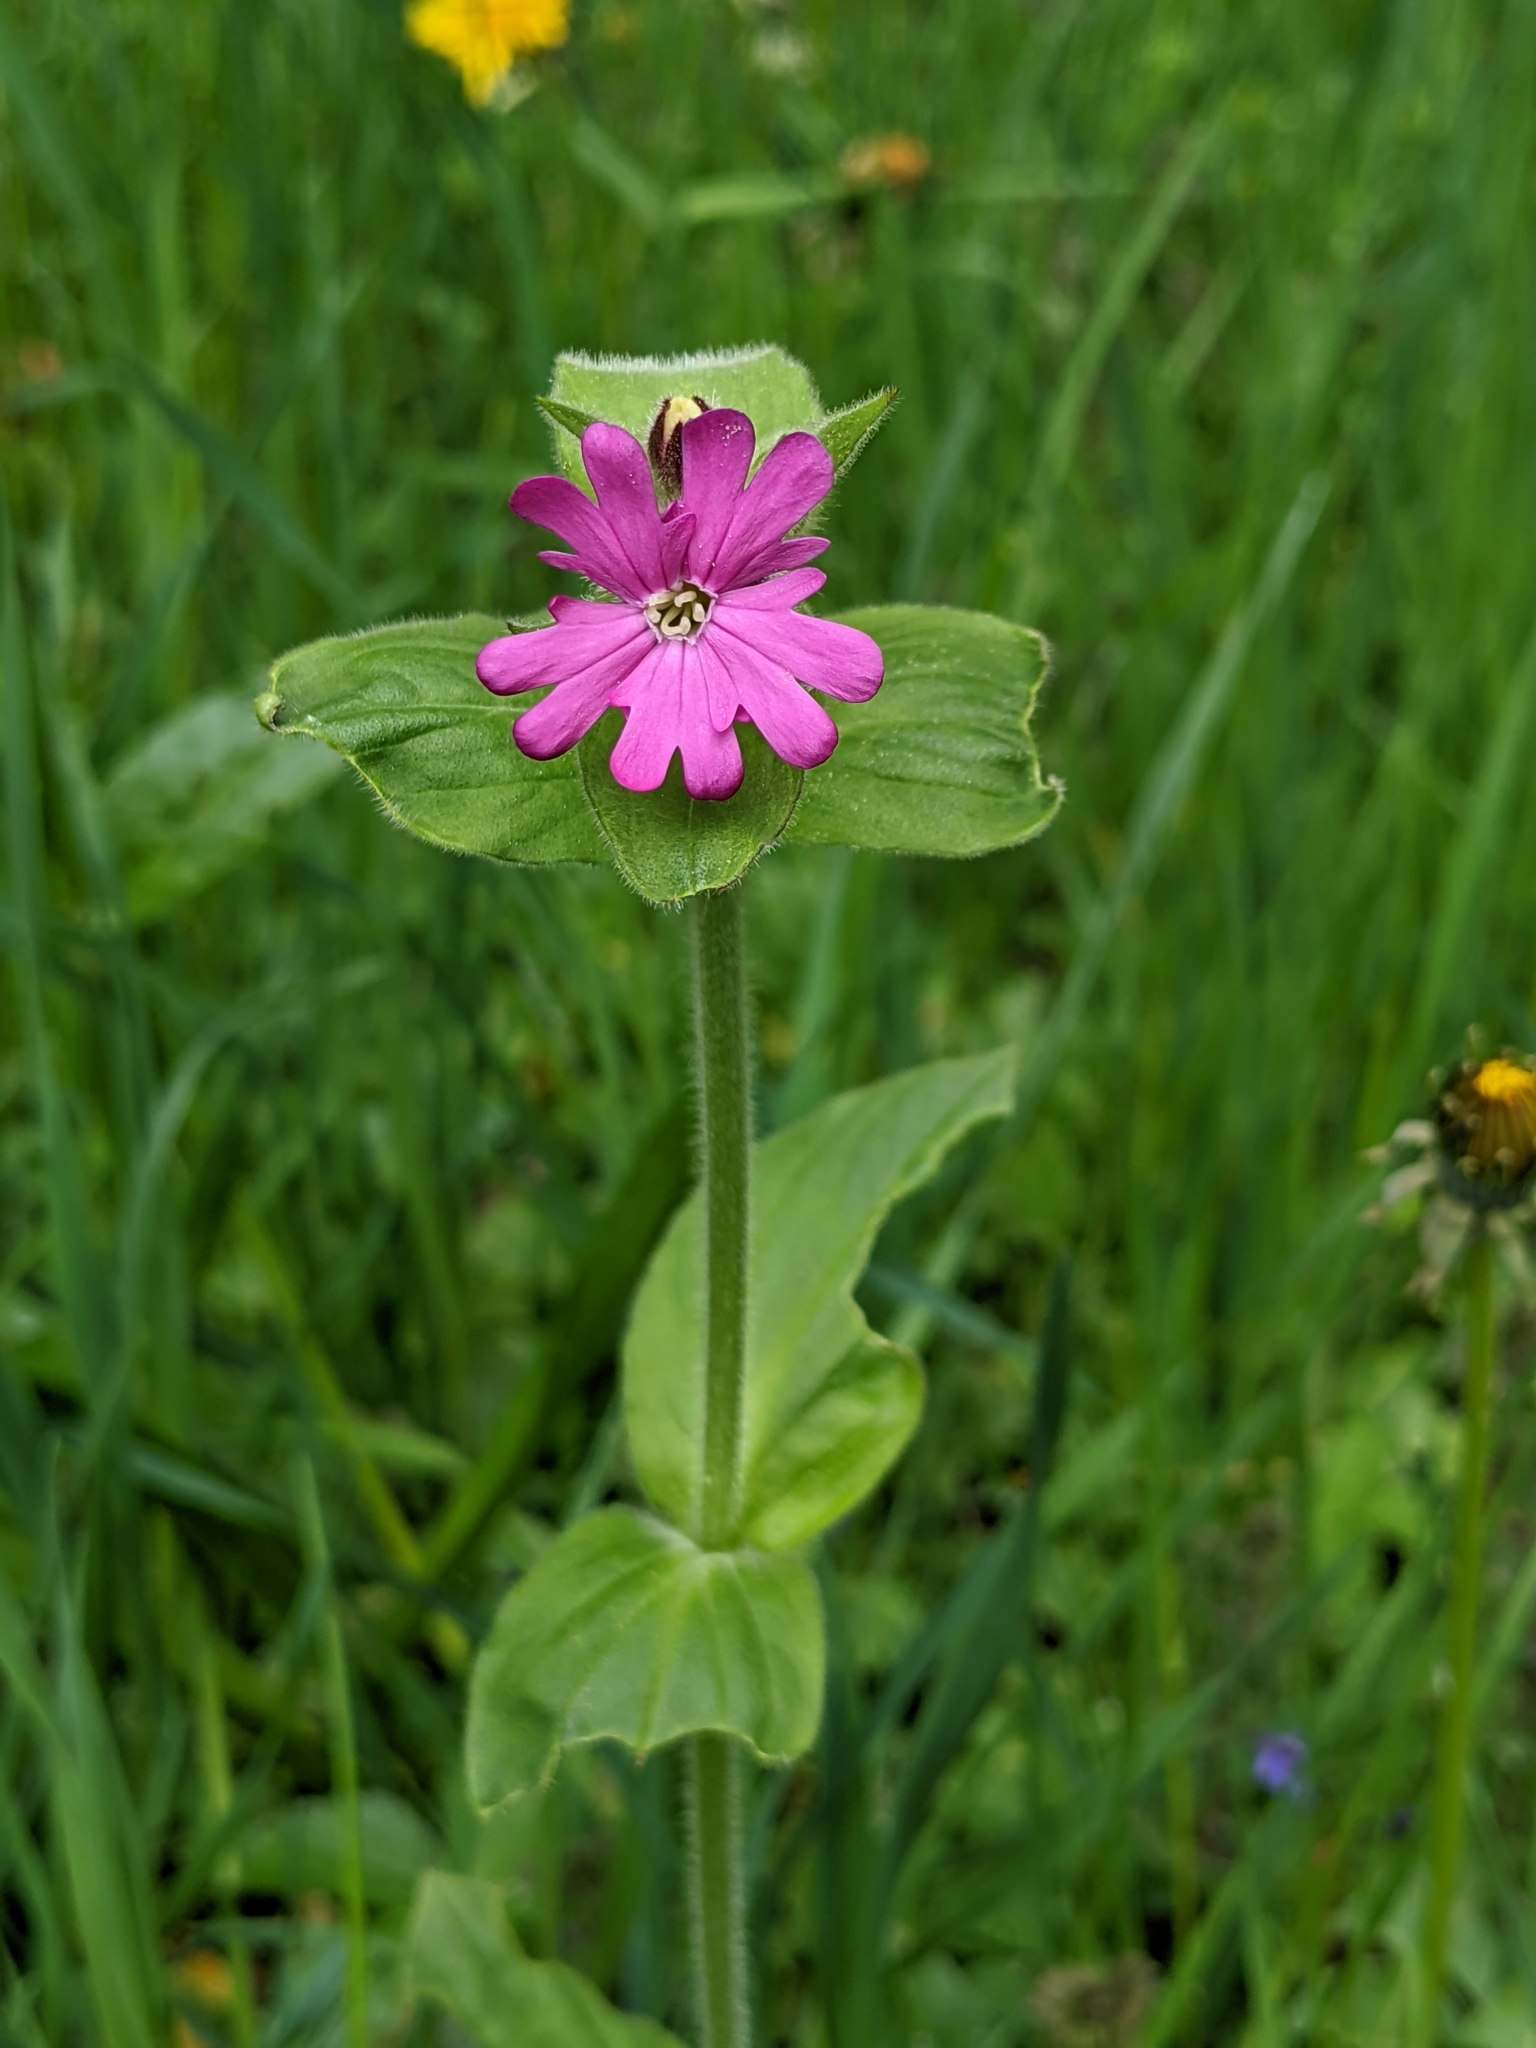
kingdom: Plantae
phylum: Tracheophyta
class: Magnoliopsida
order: Caryophyllales
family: Caryophyllaceae
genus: Silene
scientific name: Silene dioica
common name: Red campion
